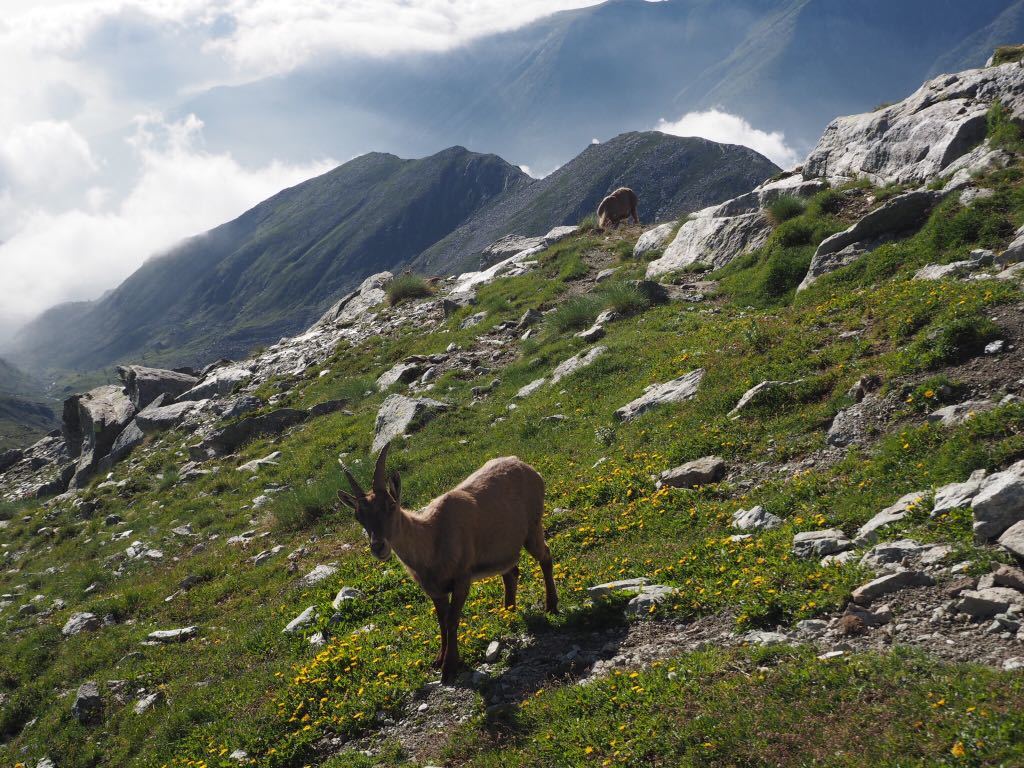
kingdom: Animalia
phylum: Chordata
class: Mammalia
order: Artiodactyla
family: Bovidae
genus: Capra
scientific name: Capra ibex
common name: Alpine ibex
